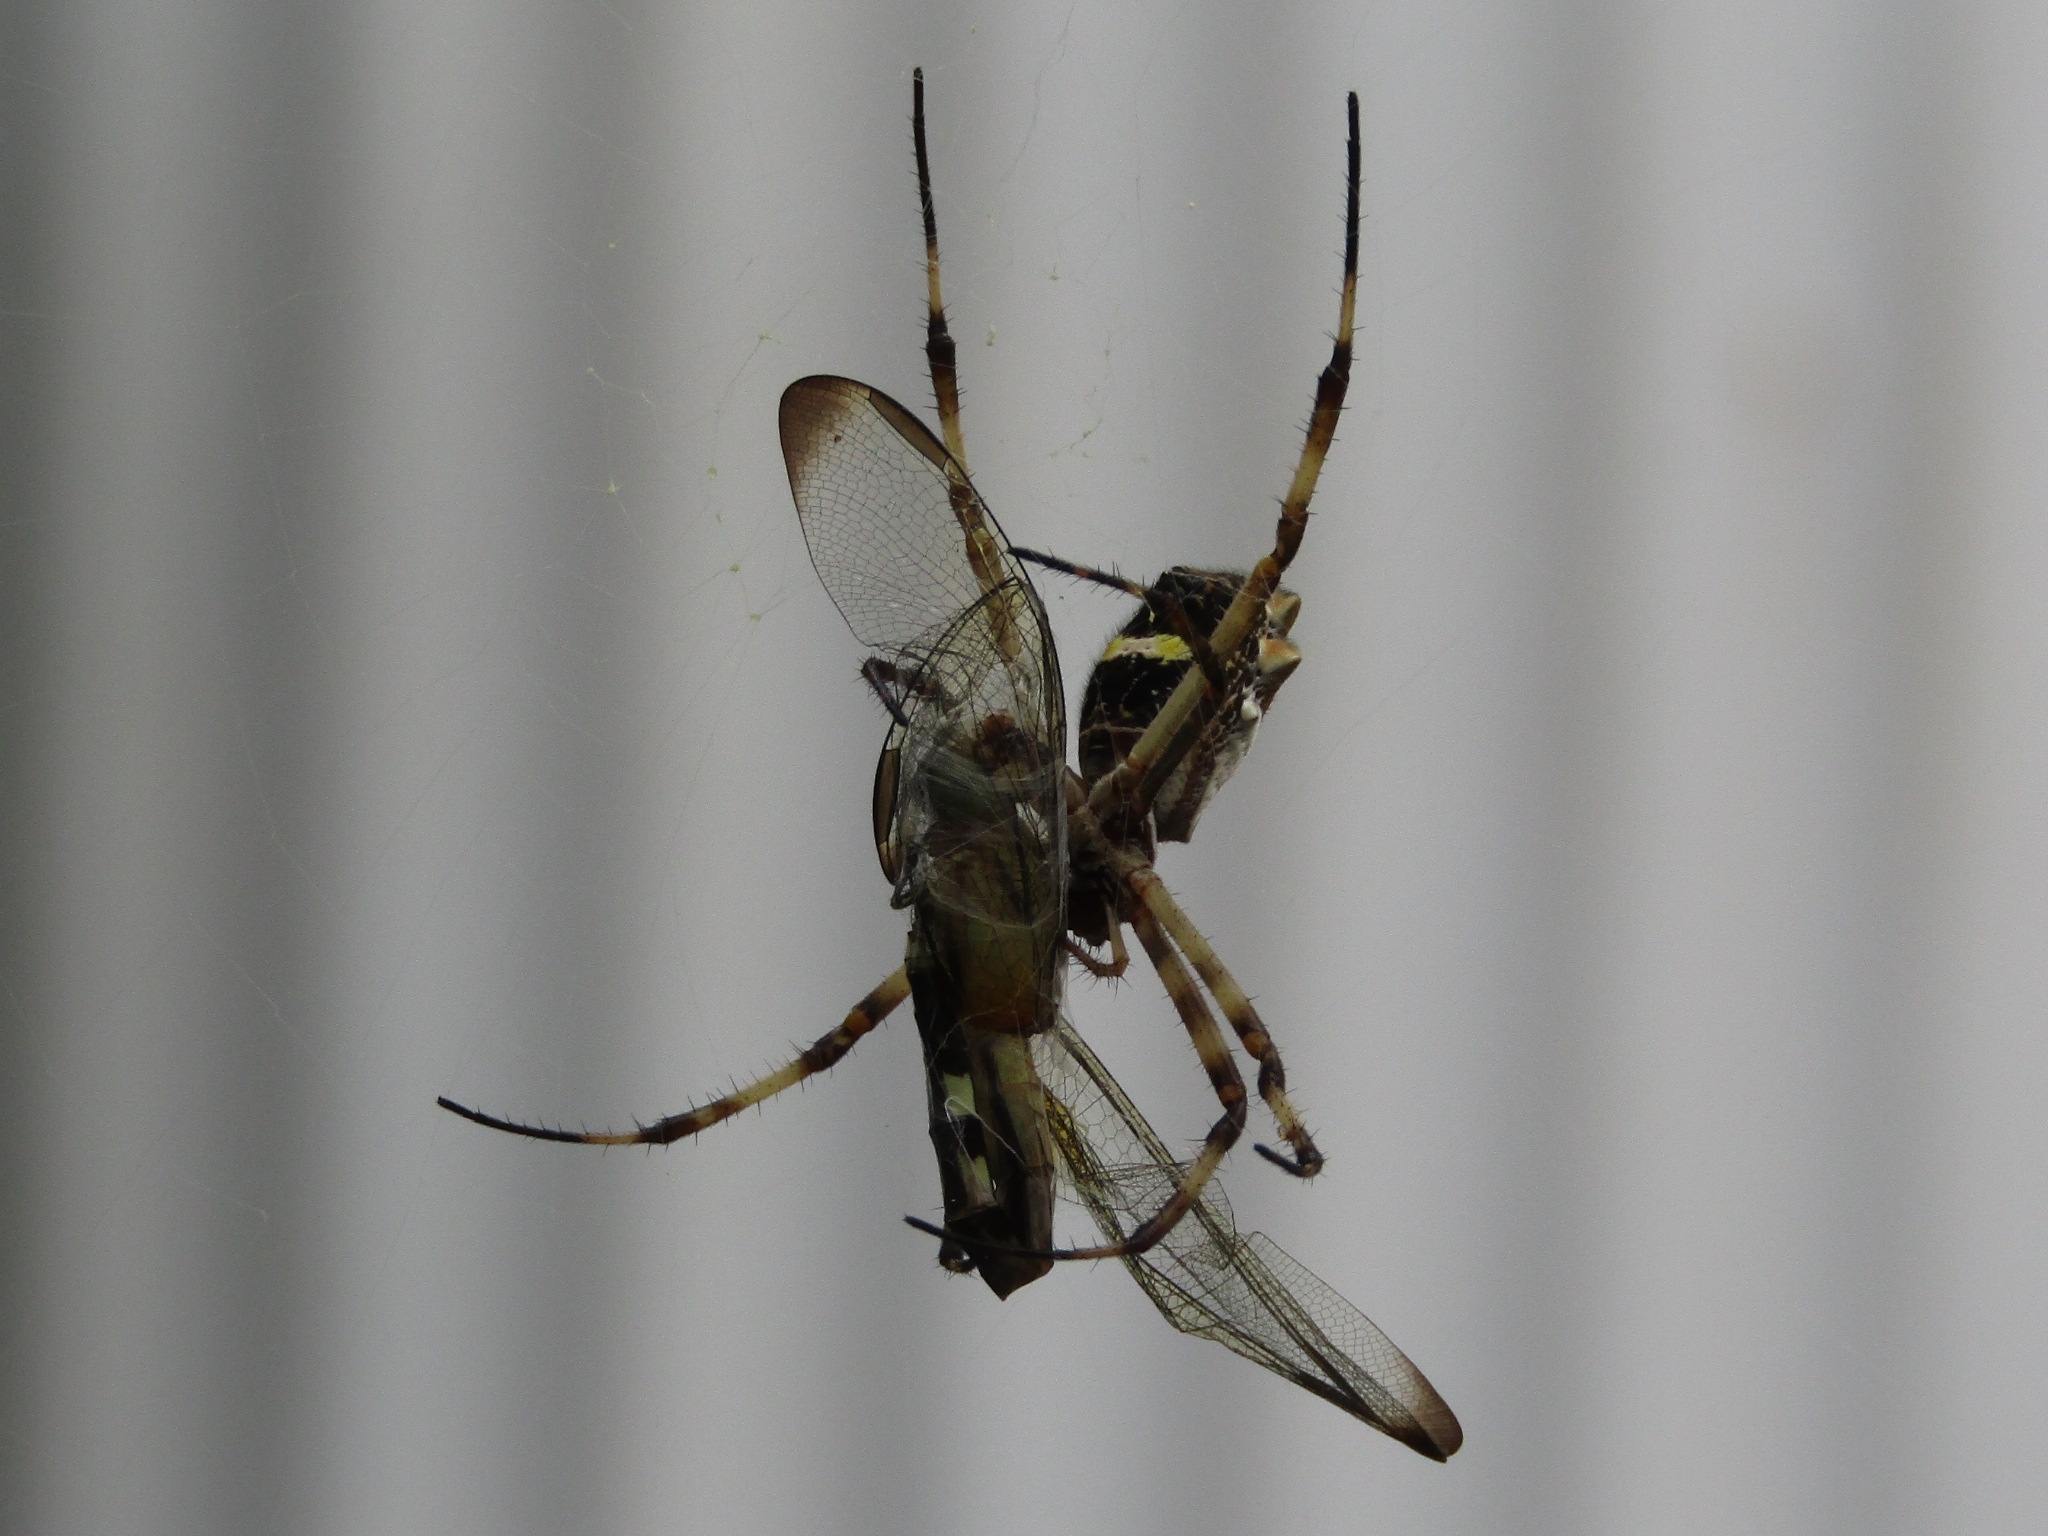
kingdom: Animalia
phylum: Arthropoda
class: Arachnida
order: Araneae
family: Araneidae
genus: Argiope
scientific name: Argiope argentata
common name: Orb weavers
